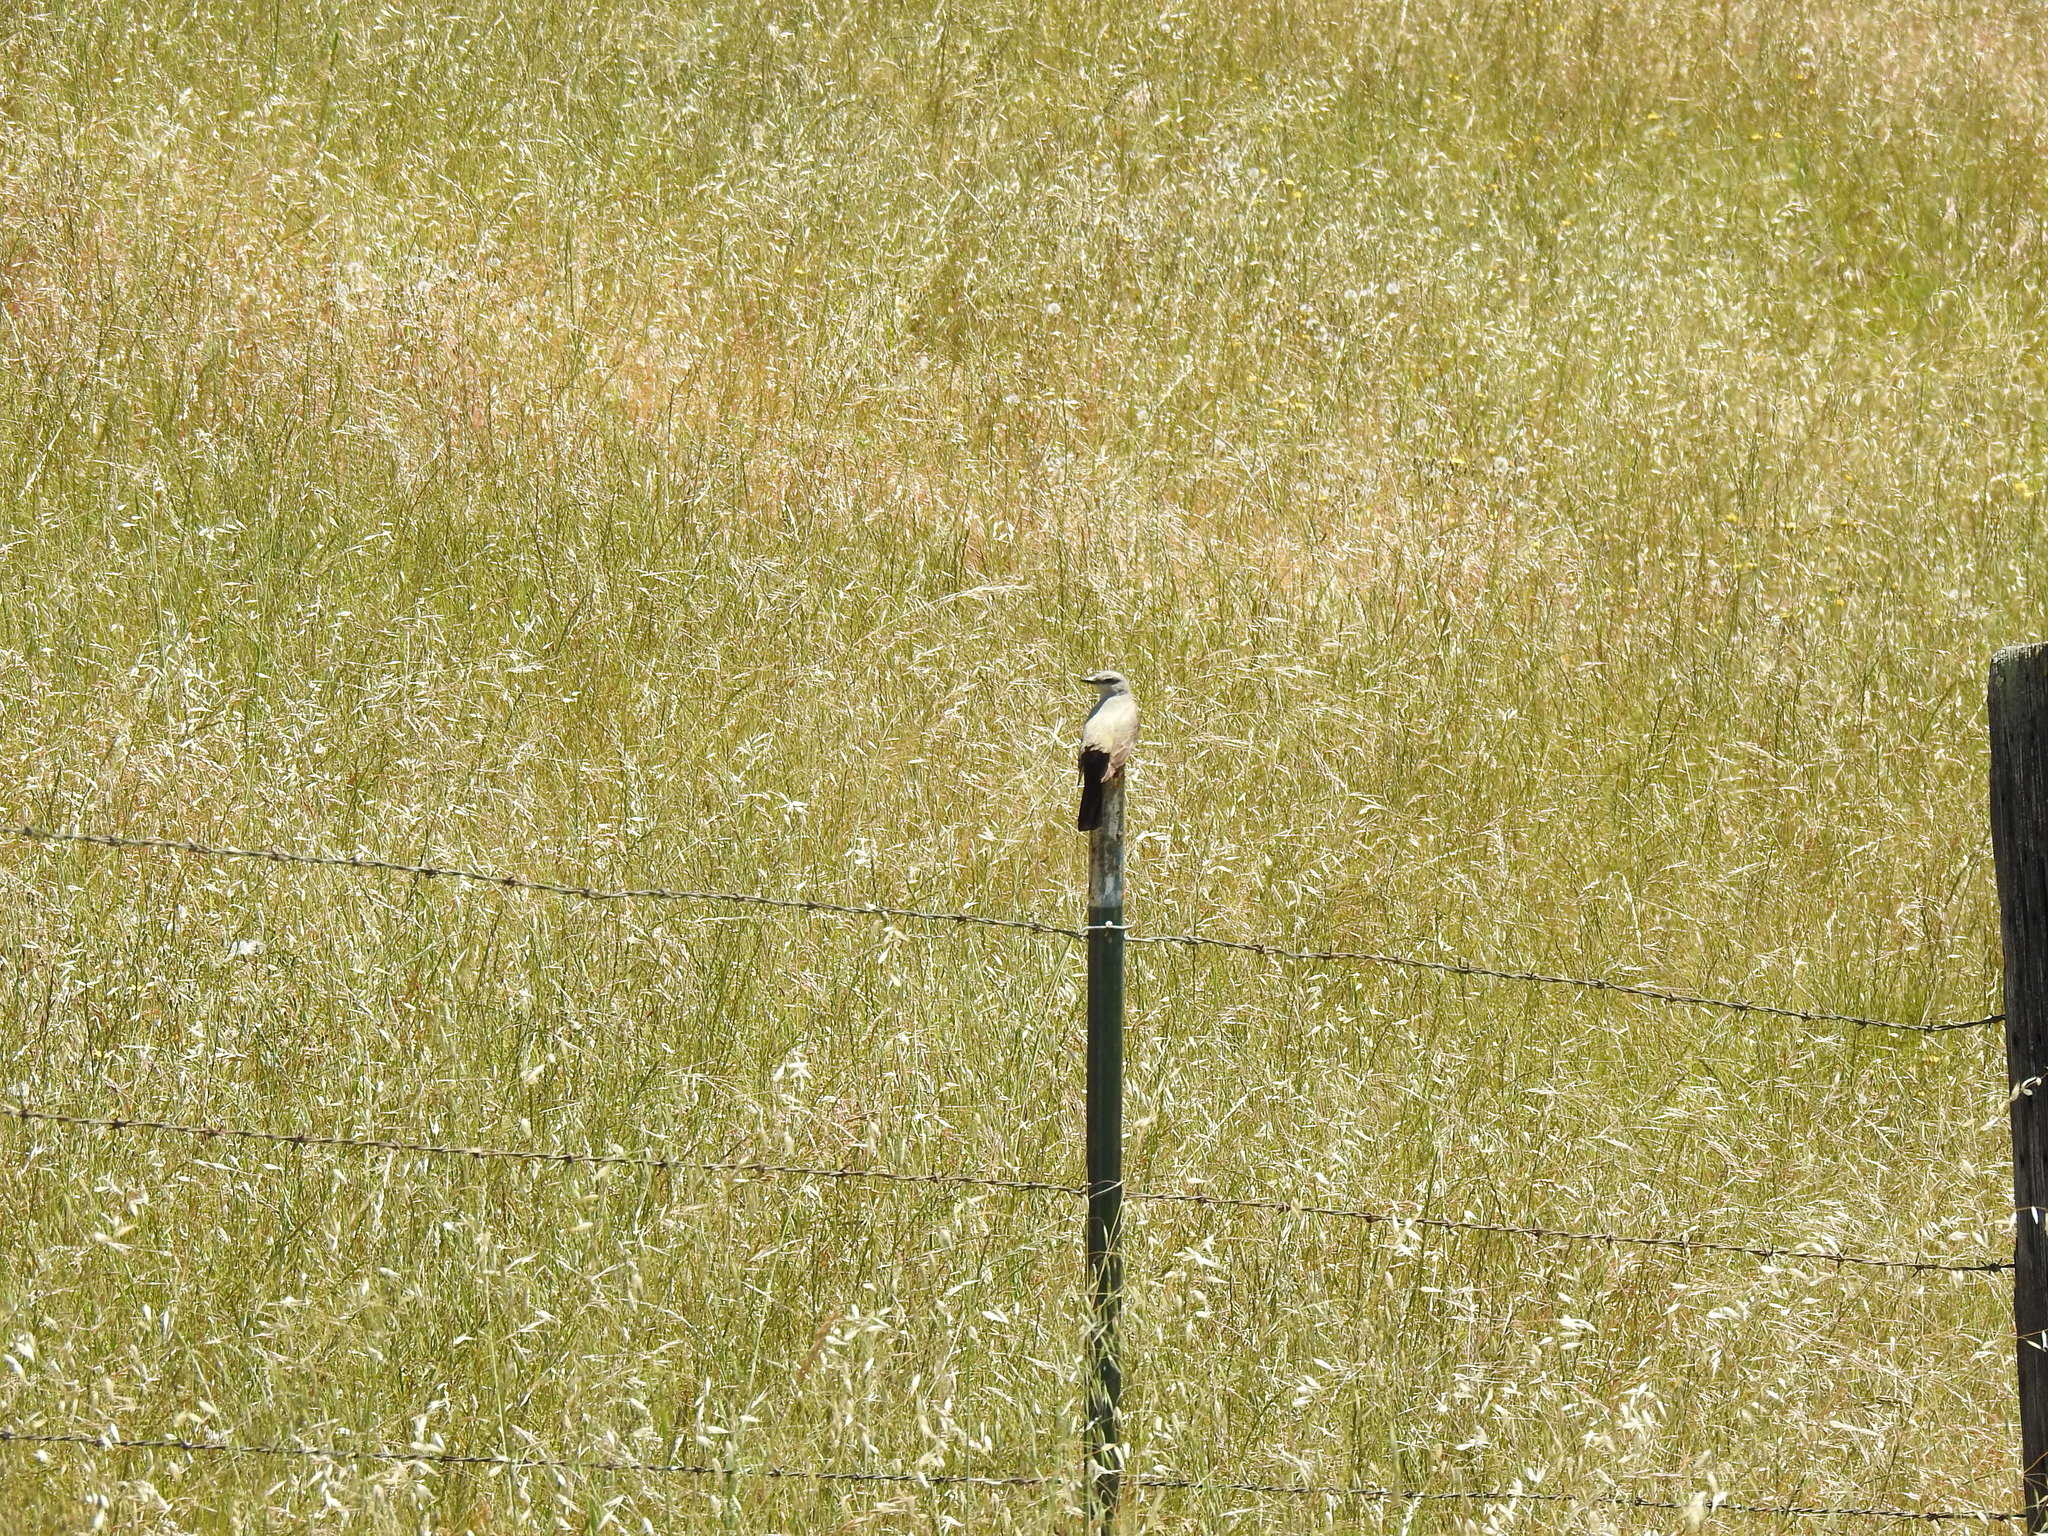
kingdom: Animalia
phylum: Chordata
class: Aves
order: Passeriformes
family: Tyrannidae
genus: Sayornis
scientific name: Sayornis saya
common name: Say's phoebe
